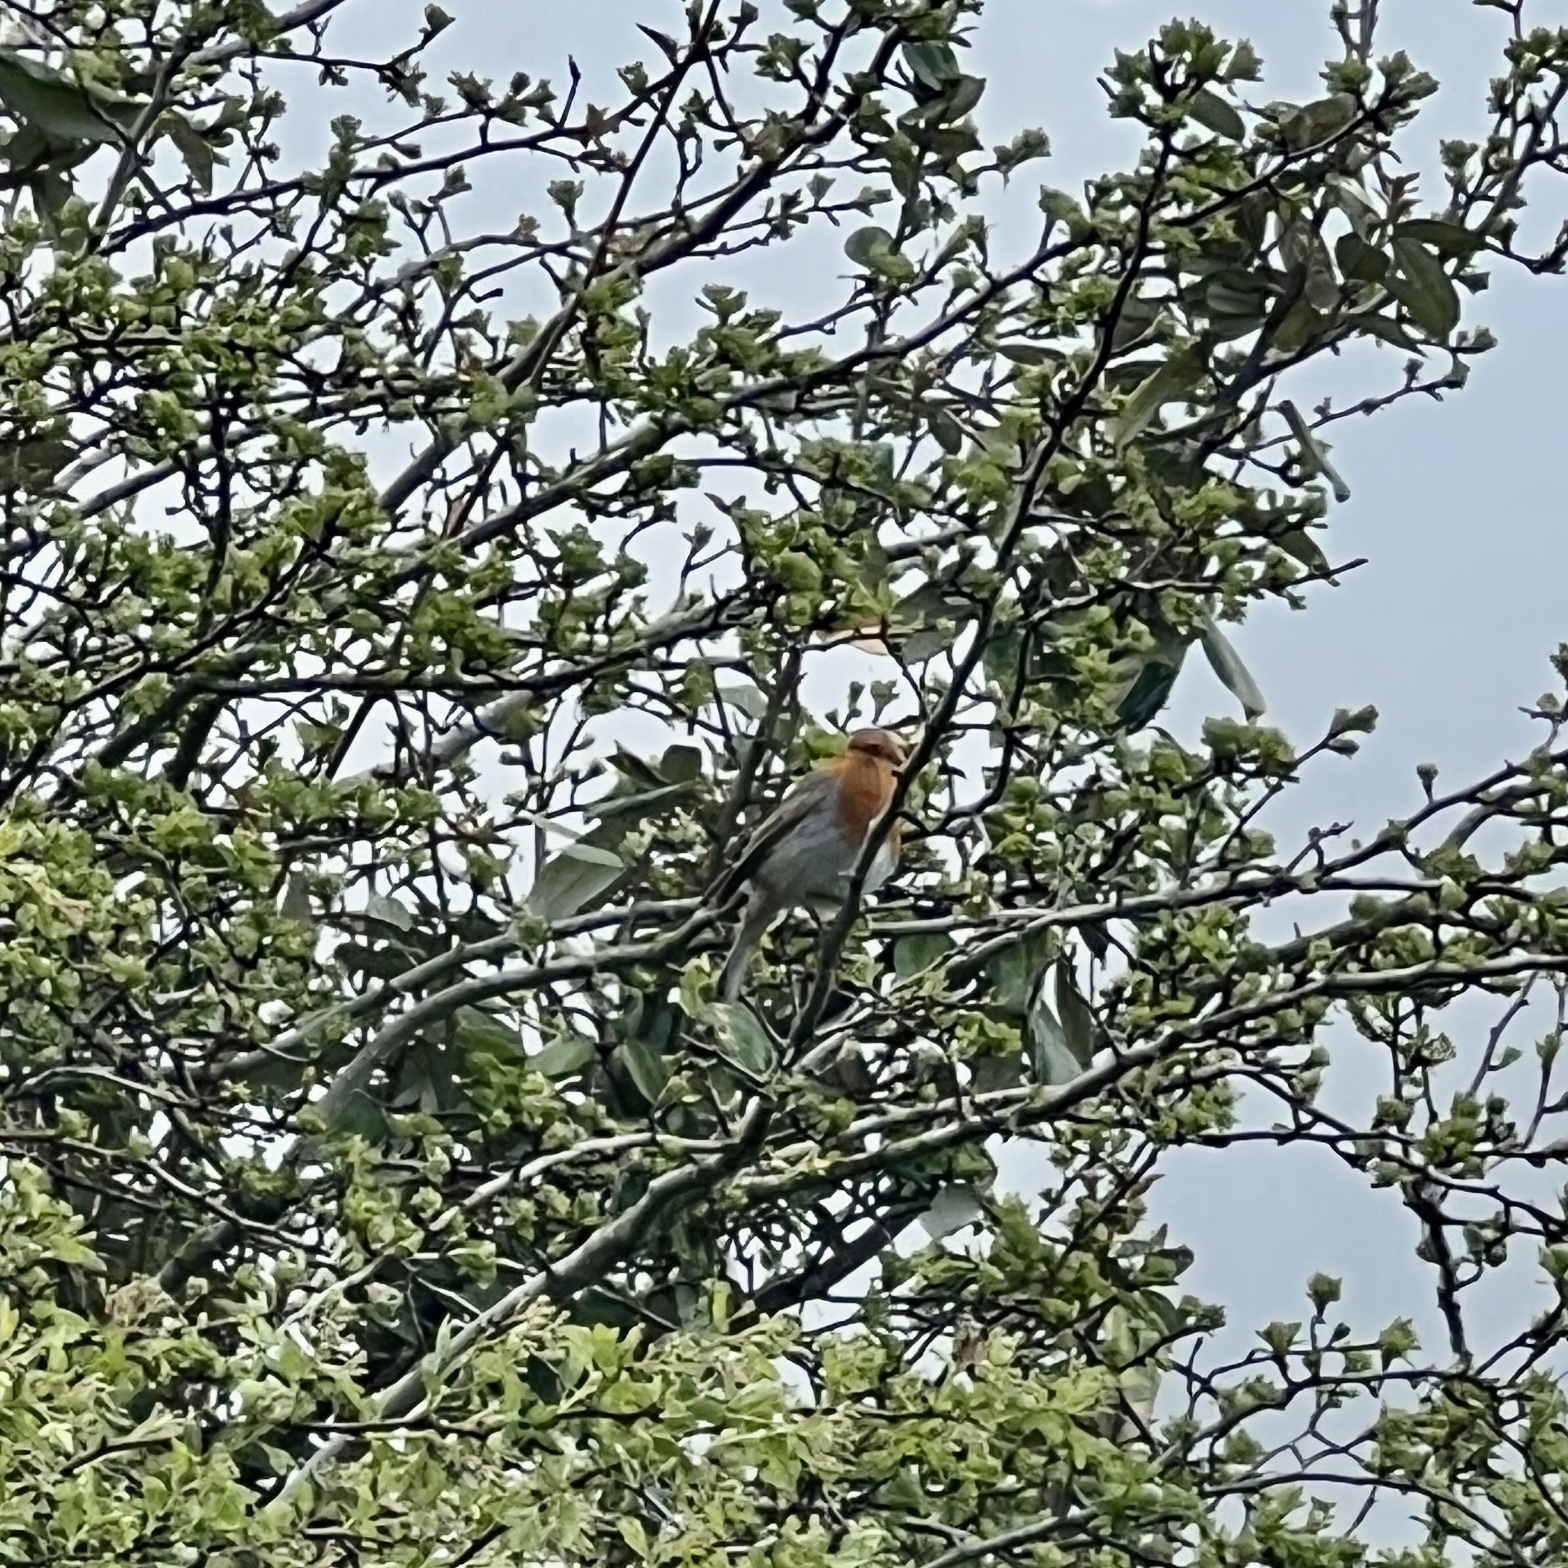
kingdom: Animalia
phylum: Chordata
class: Aves
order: Passeriformes
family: Muscicapidae
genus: Erithacus
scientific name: Erithacus rubecula
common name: European robin
